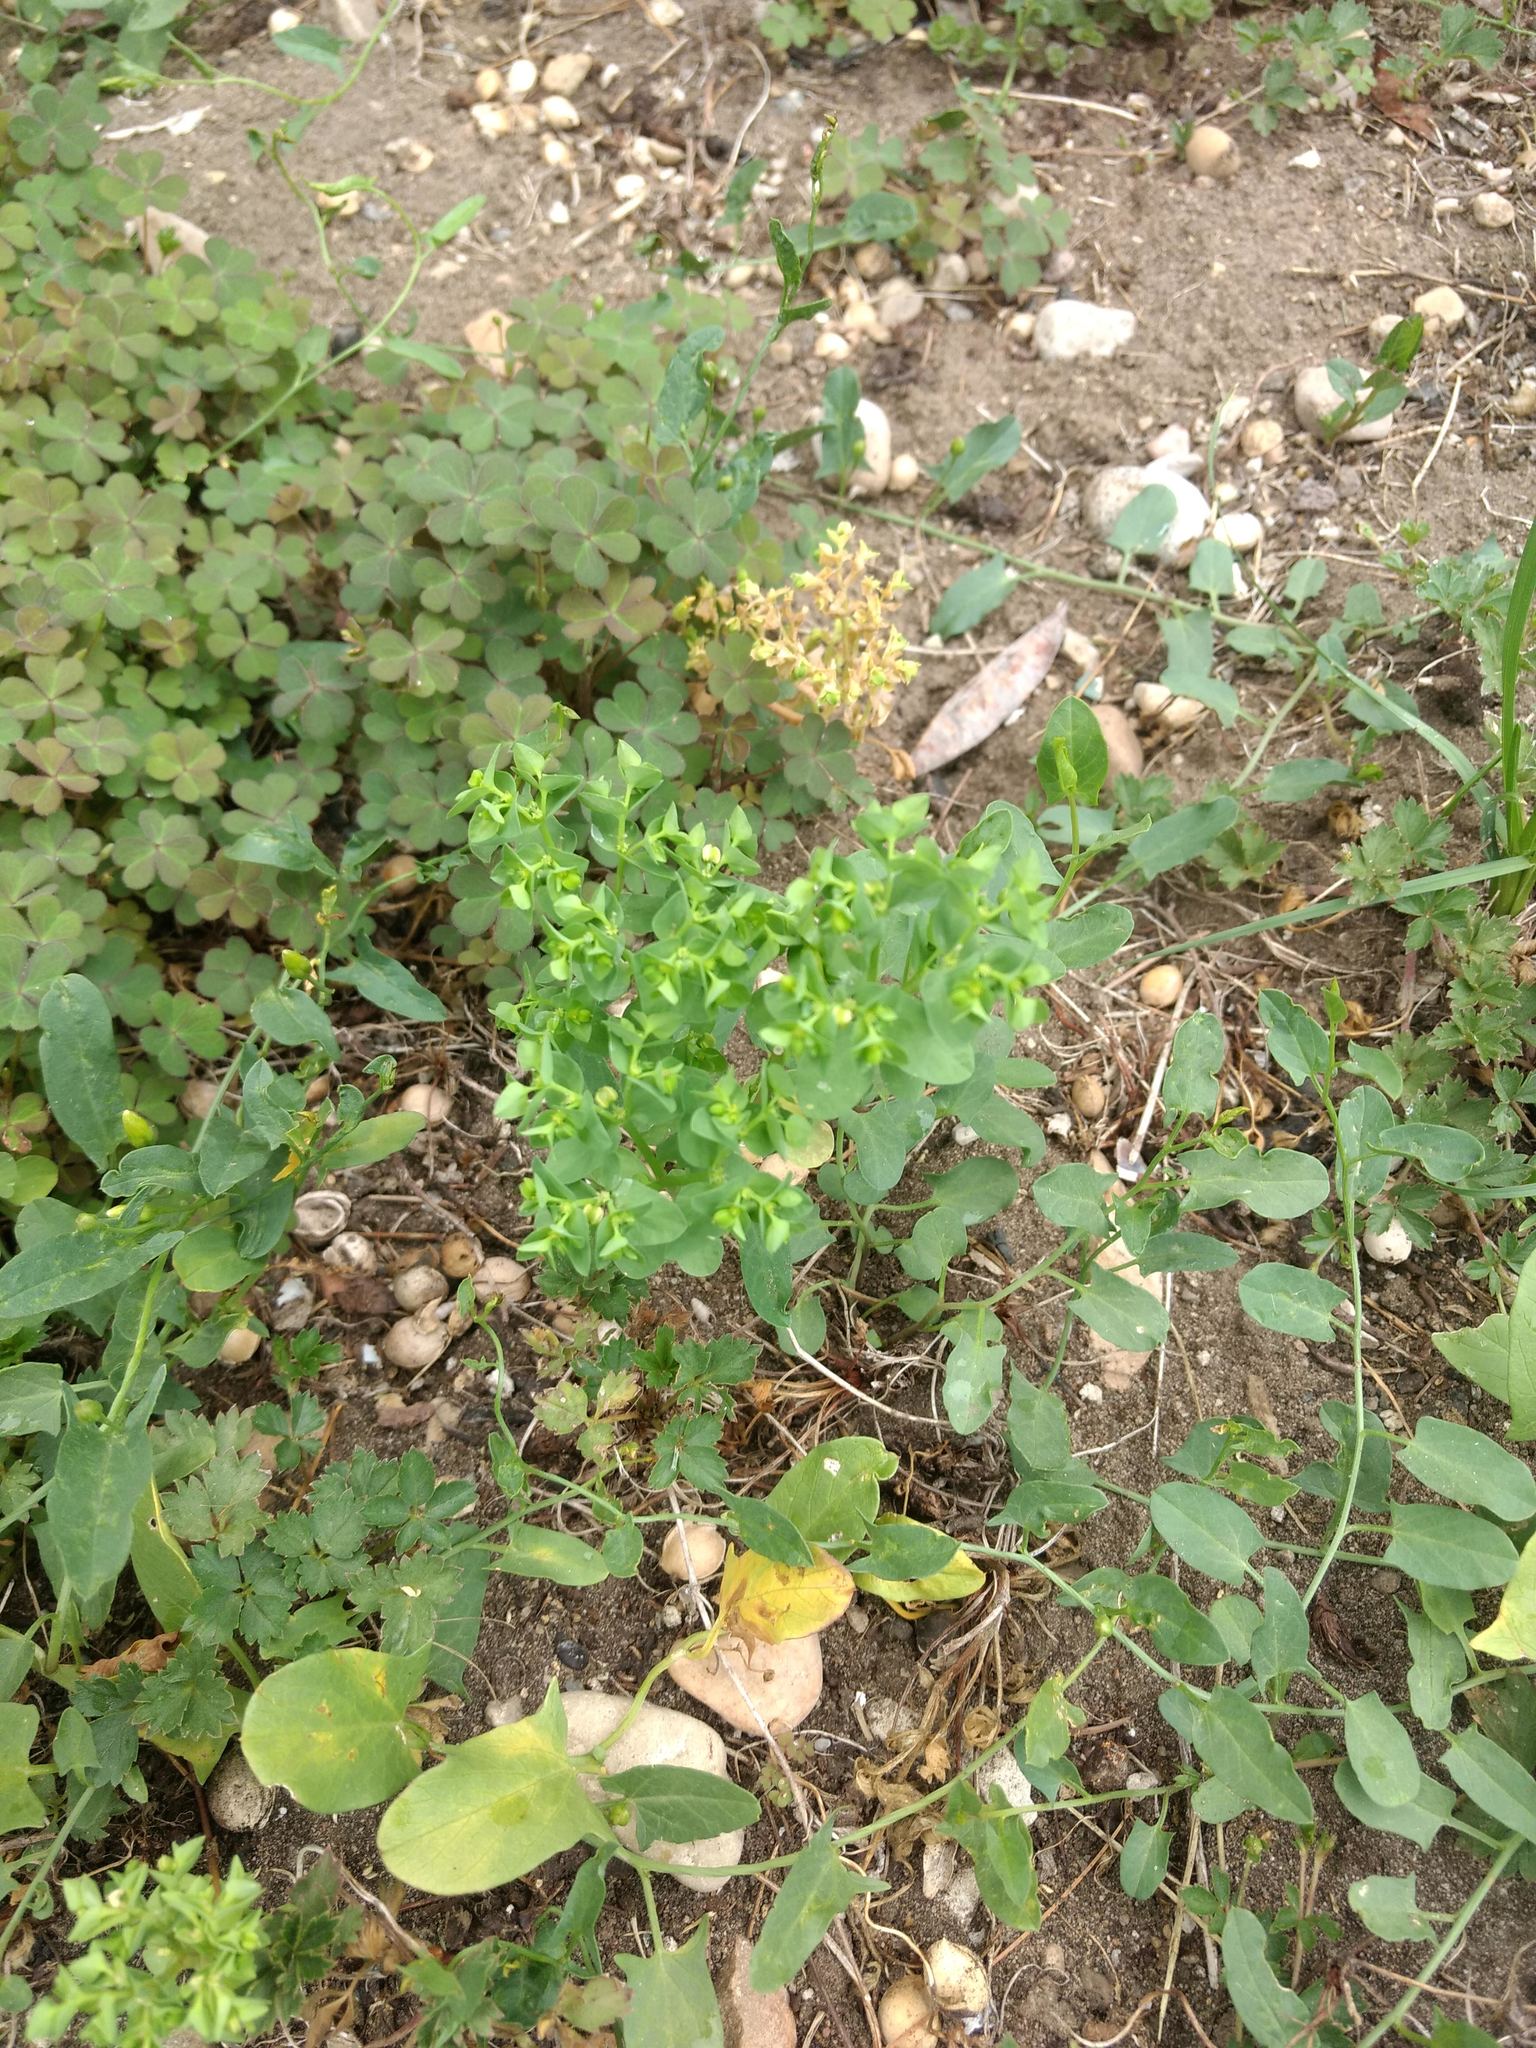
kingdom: Plantae
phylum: Tracheophyta
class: Magnoliopsida
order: Malpighiales
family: Euphorbiaceae
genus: Euphorbia
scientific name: Euphorbia peplus
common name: Petty spurge
